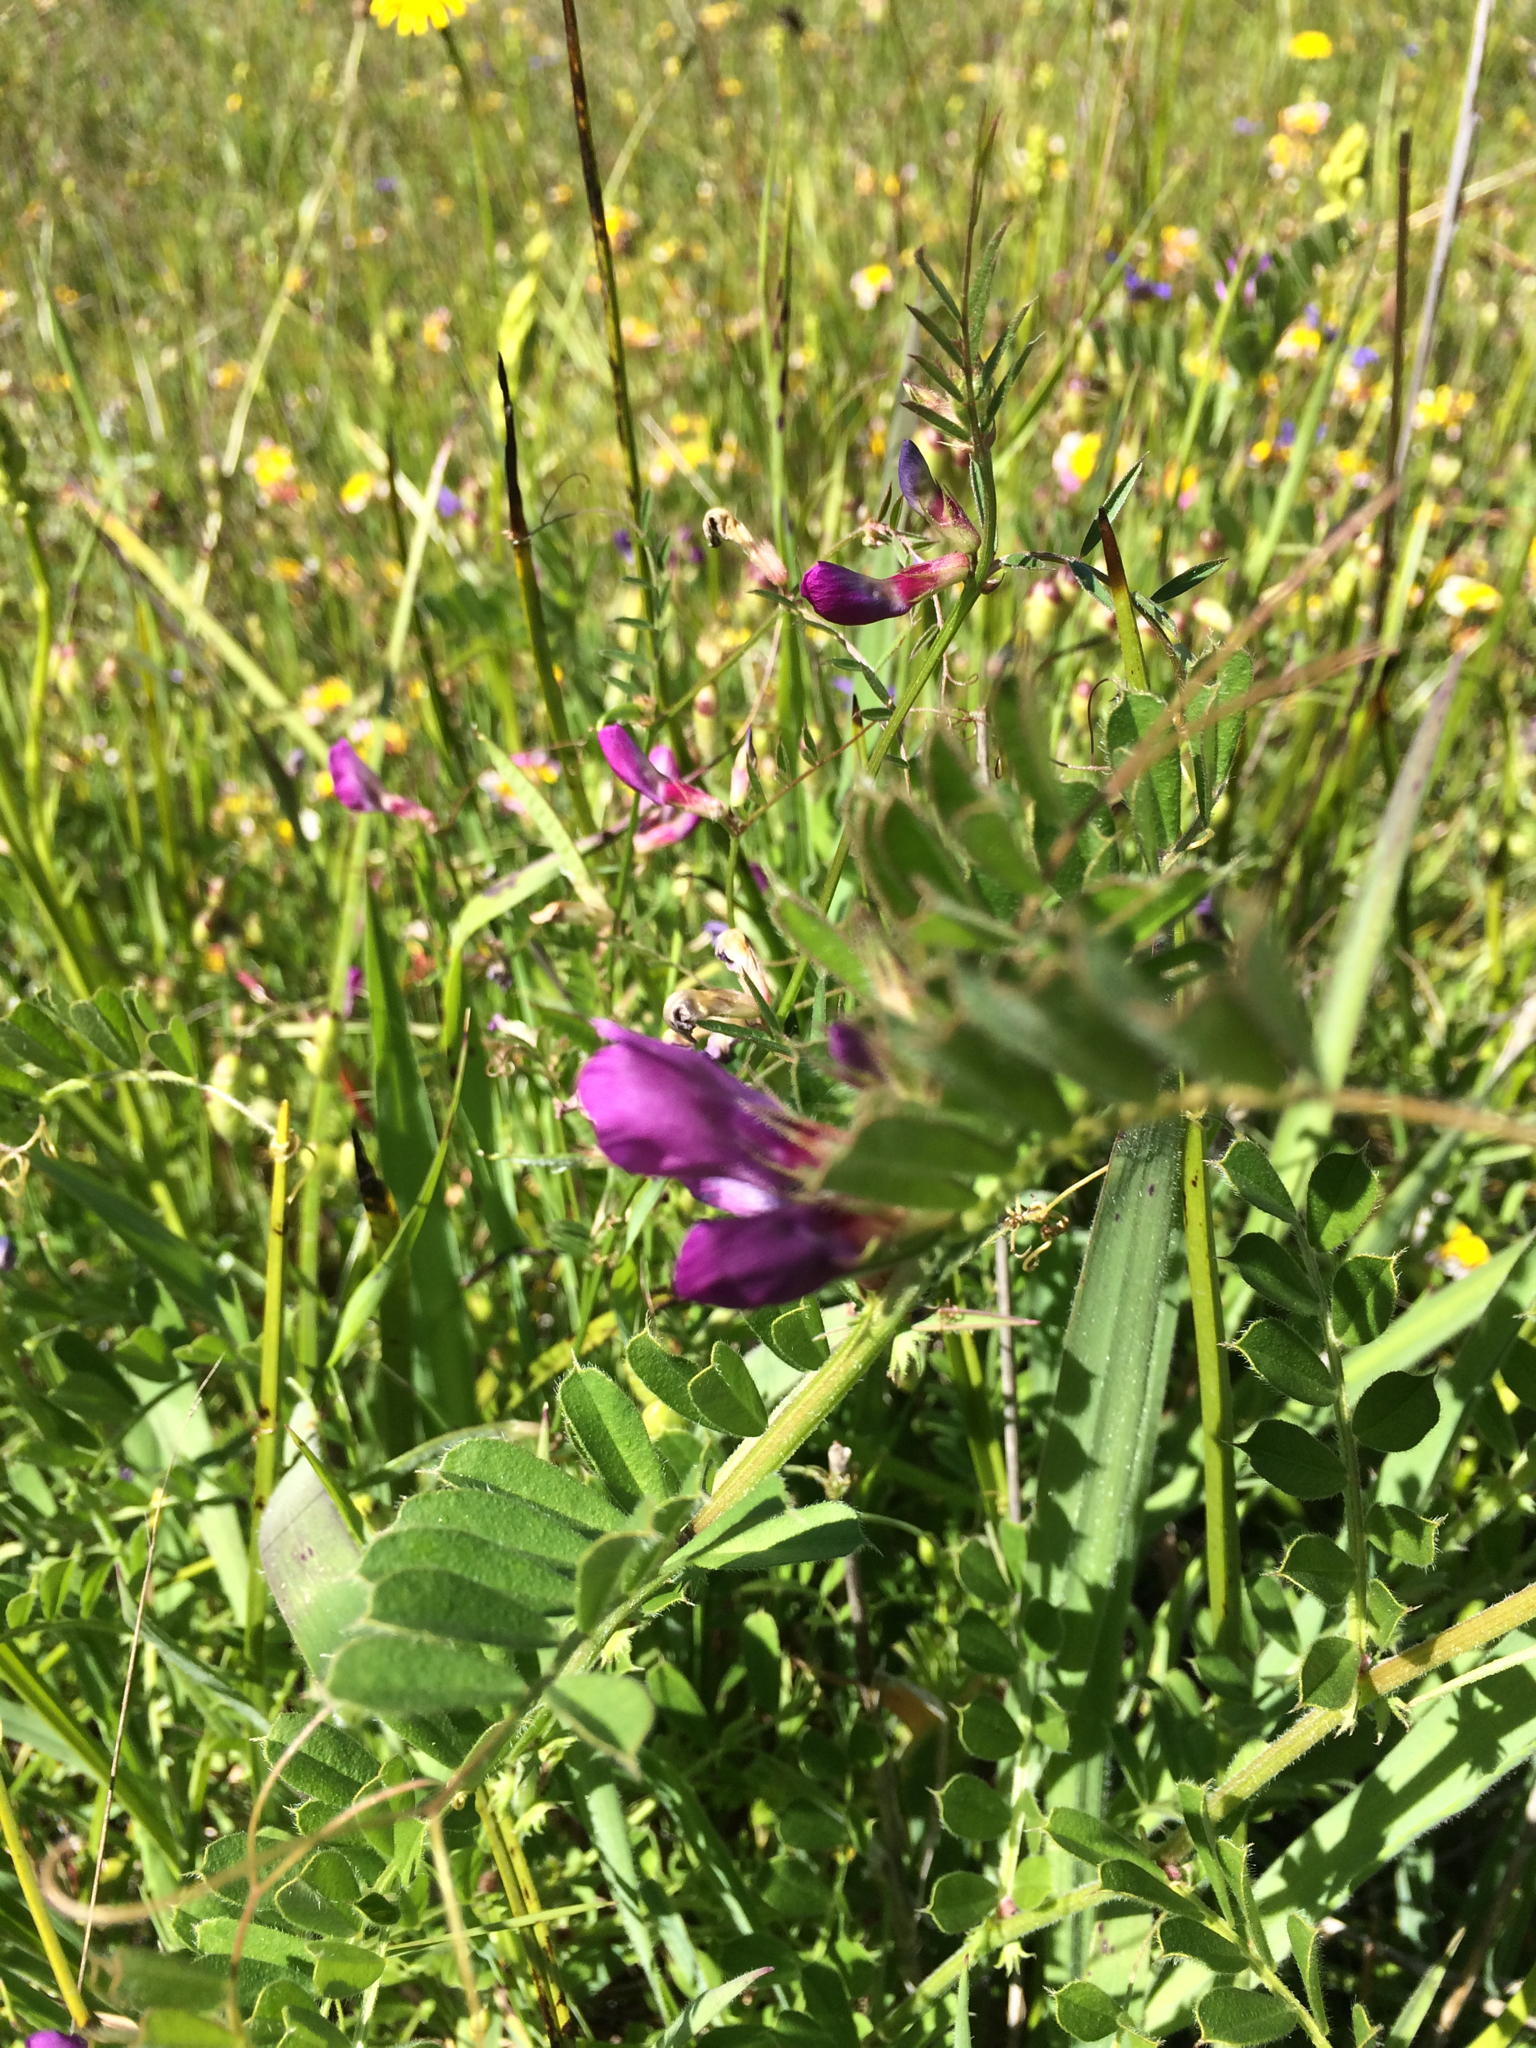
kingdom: Plantae
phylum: Tracheophyta
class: Magnoliopsida
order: Fabales
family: Fabaceae
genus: Vicia
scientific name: Vicia sativa
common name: Garden vetch
